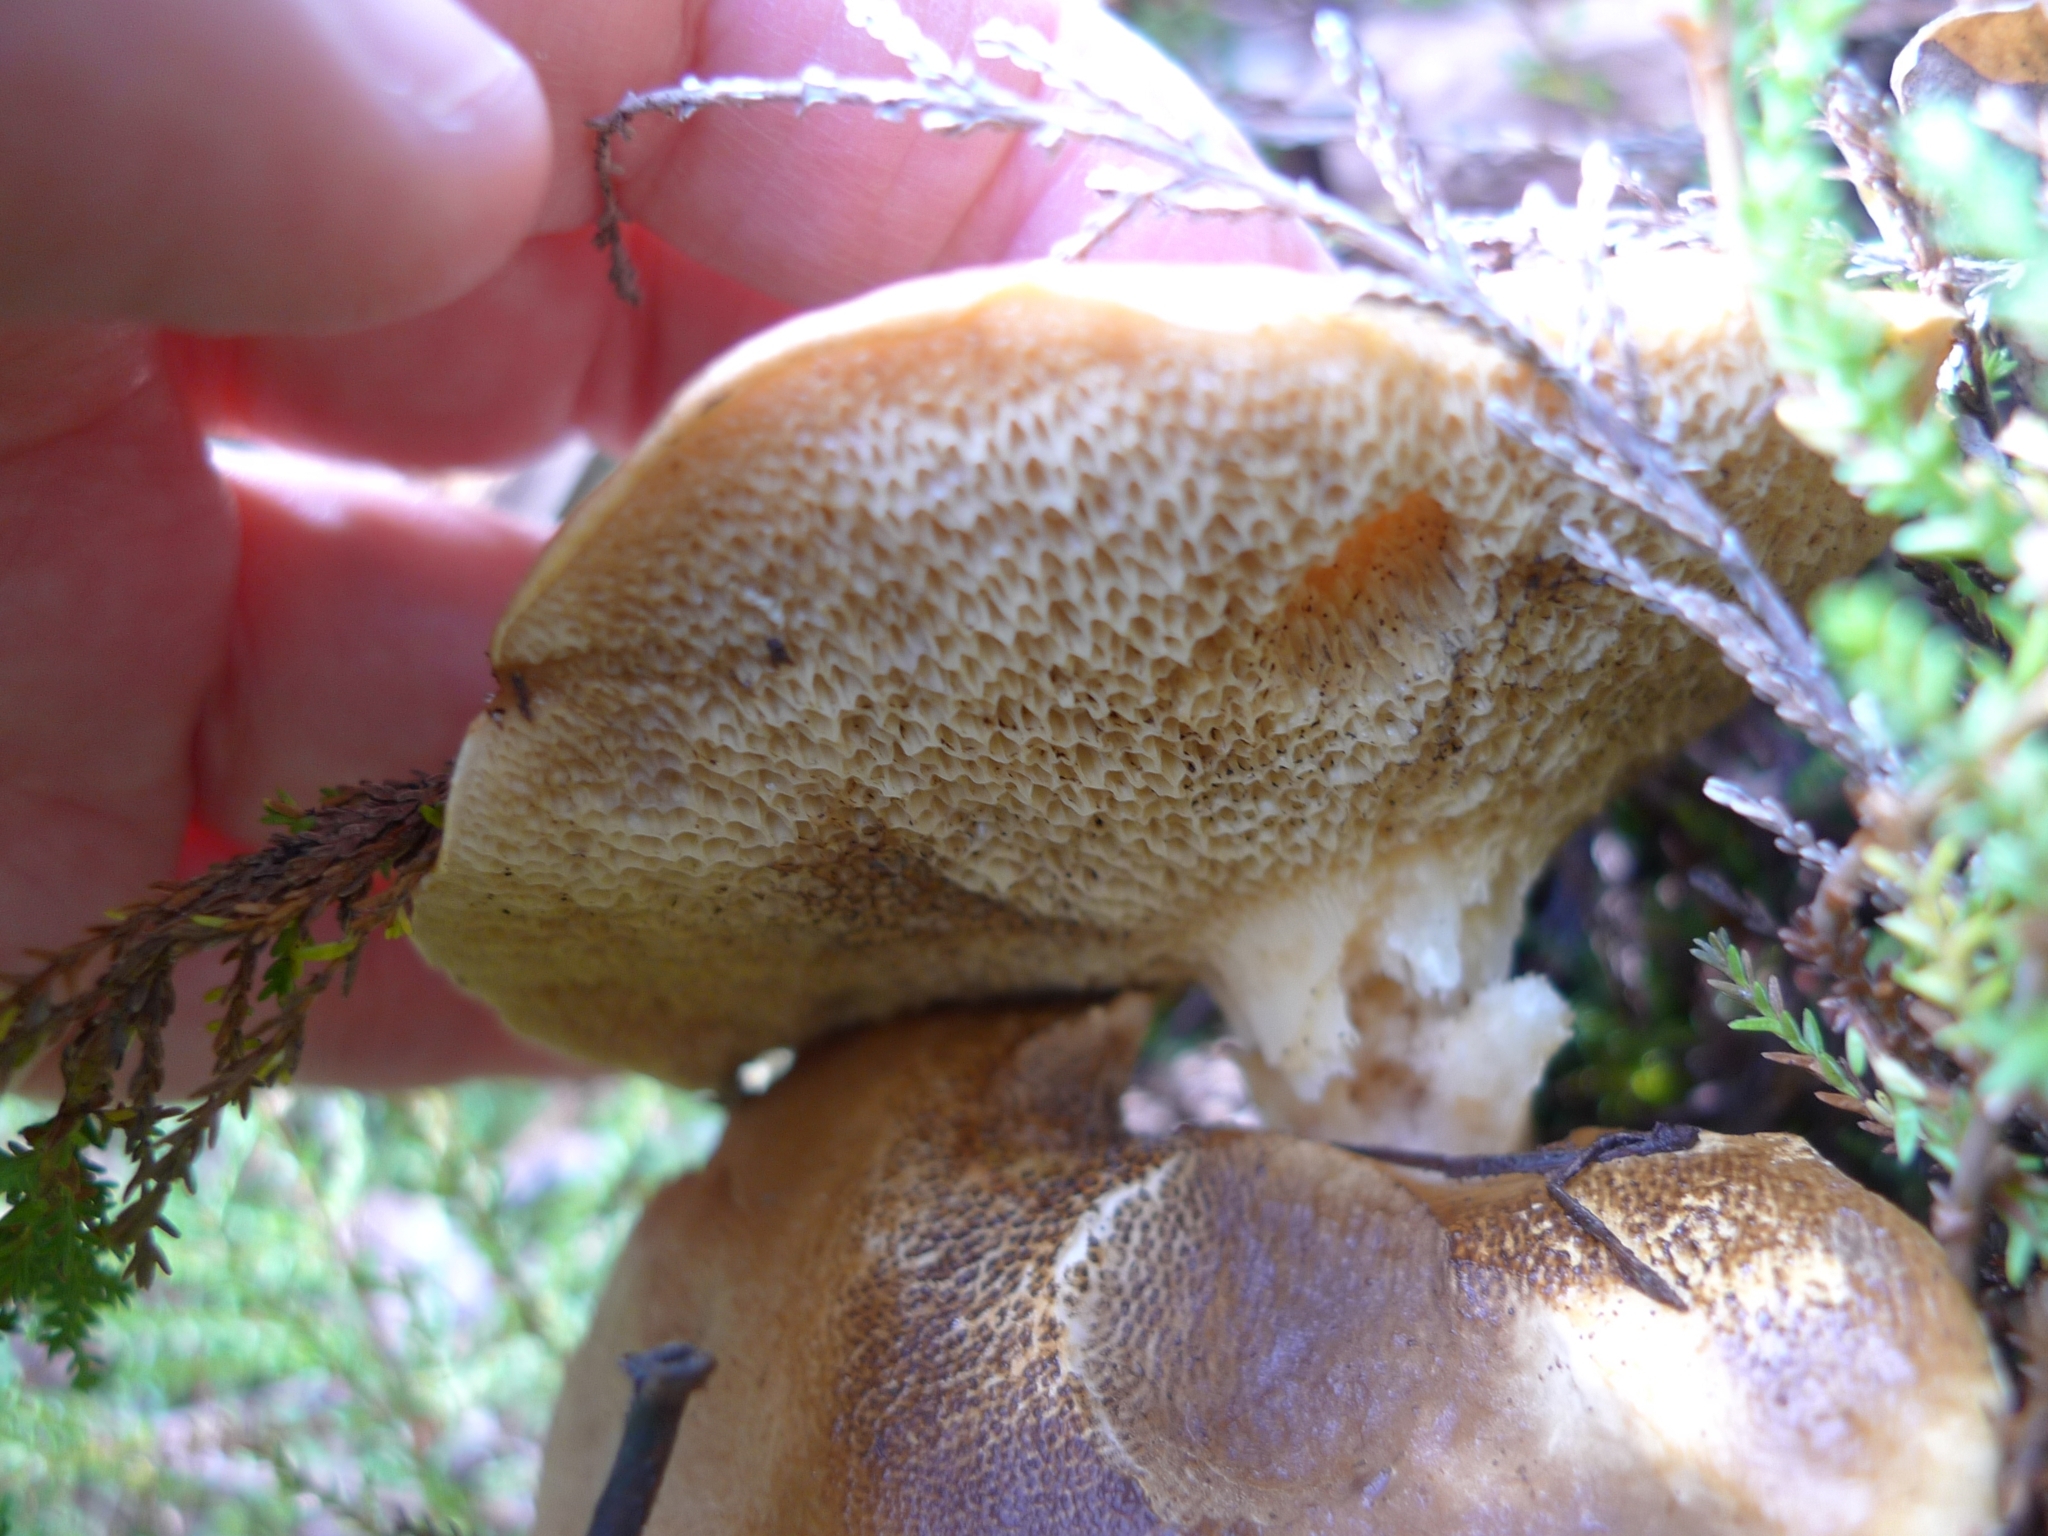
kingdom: Fungi
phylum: Basidiomycota
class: Agaricomycetes
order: Boletales
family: Suillaceae
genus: Suillus
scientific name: Suillus bovinus
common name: Bovine bolete
